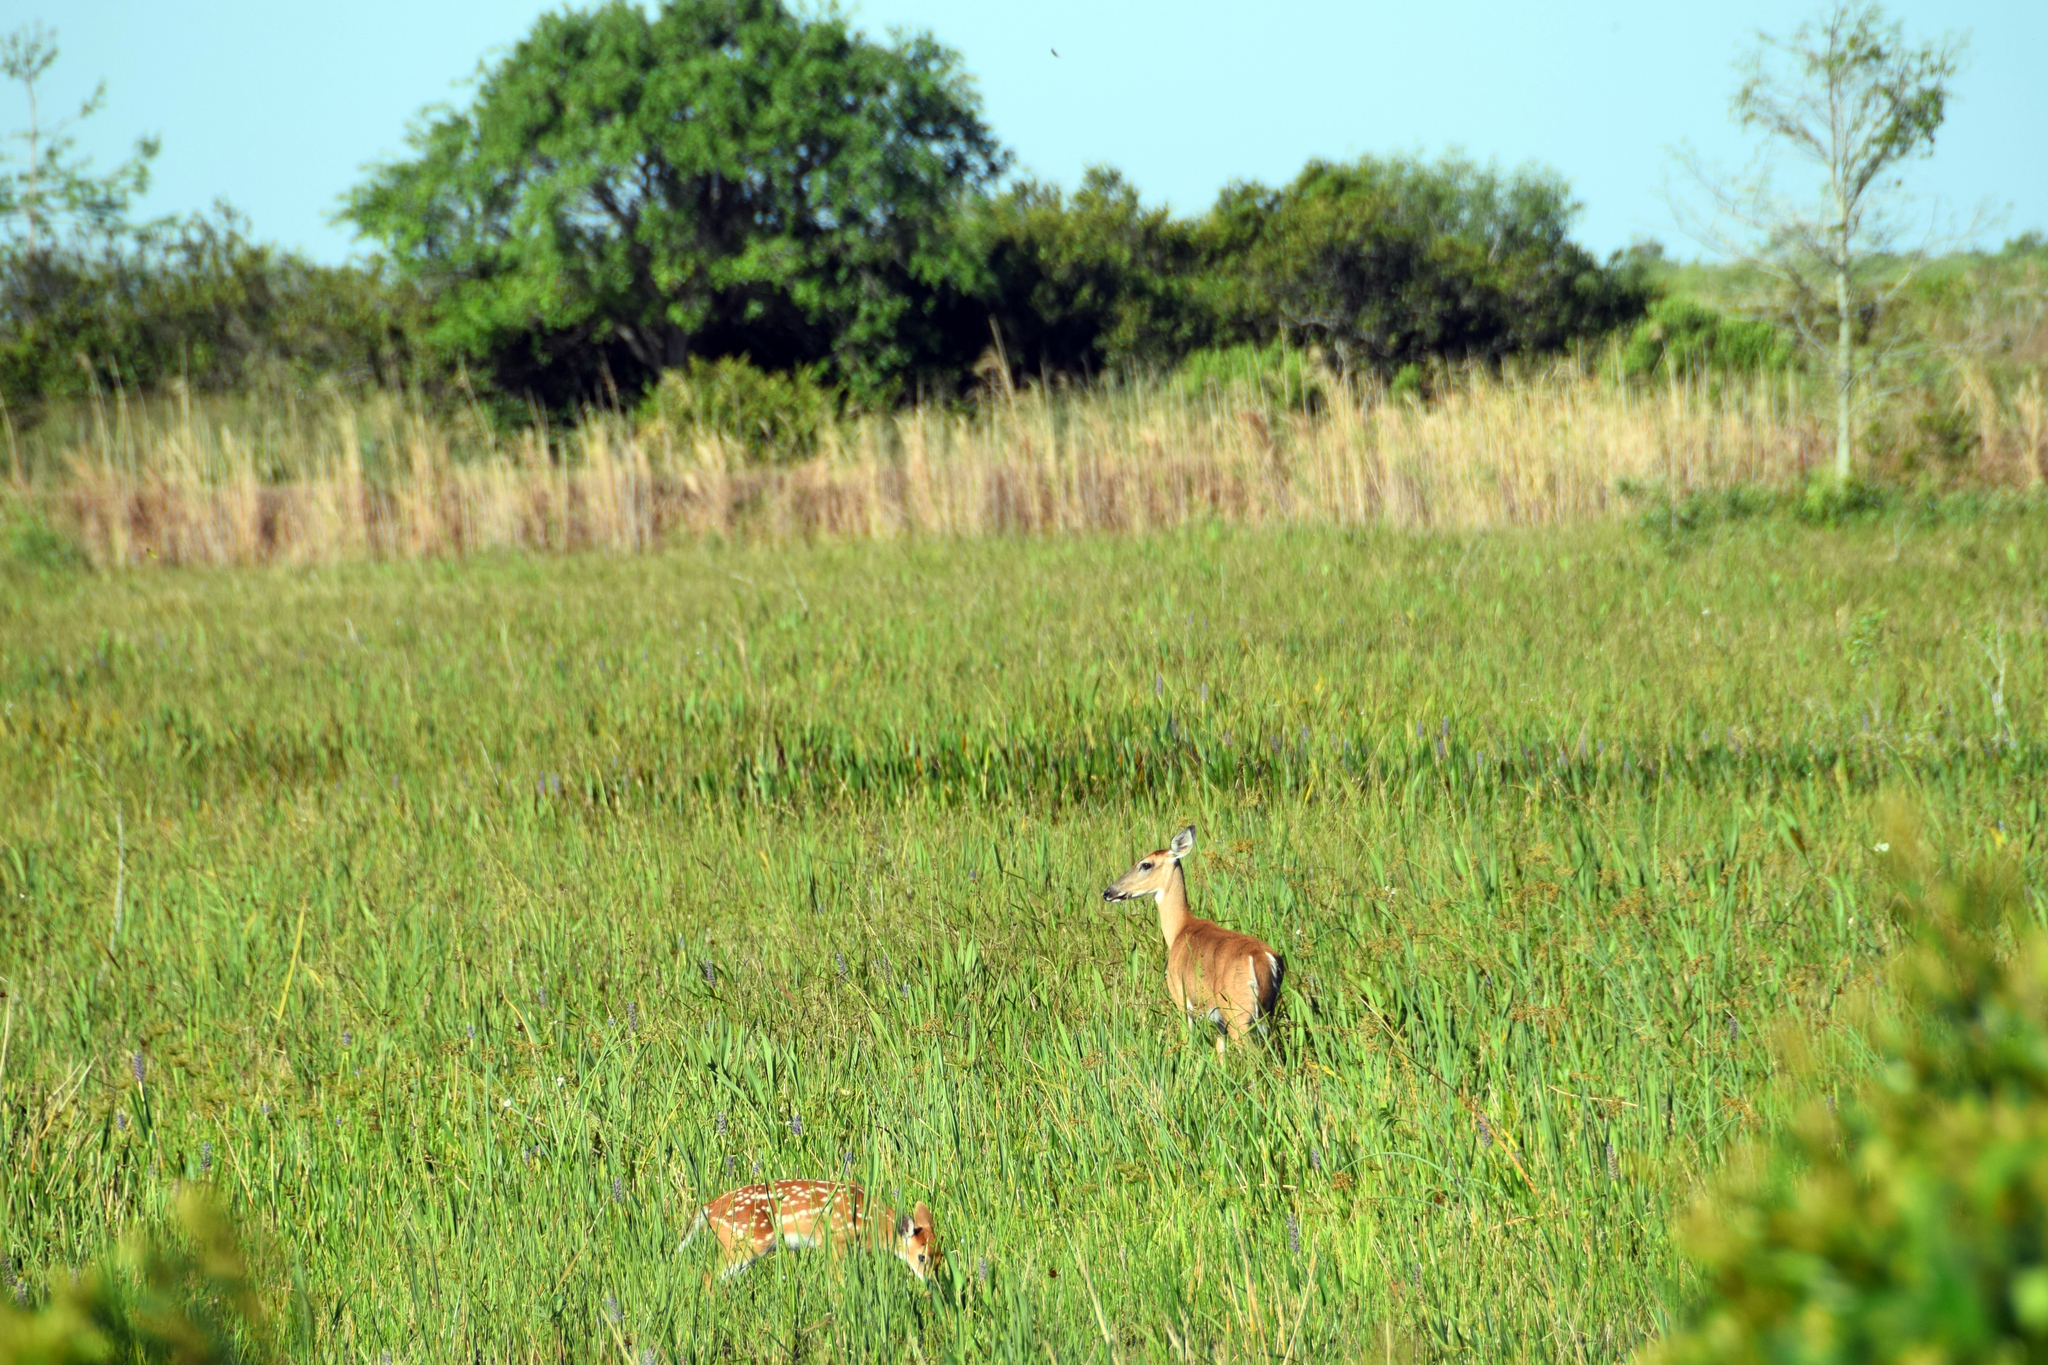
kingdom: Animalia
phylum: Chordata
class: Mammalia
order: Artiodactyla
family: Cervidae
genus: Odocoileus
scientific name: Odocoileus virginianus
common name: White-tailed deer
